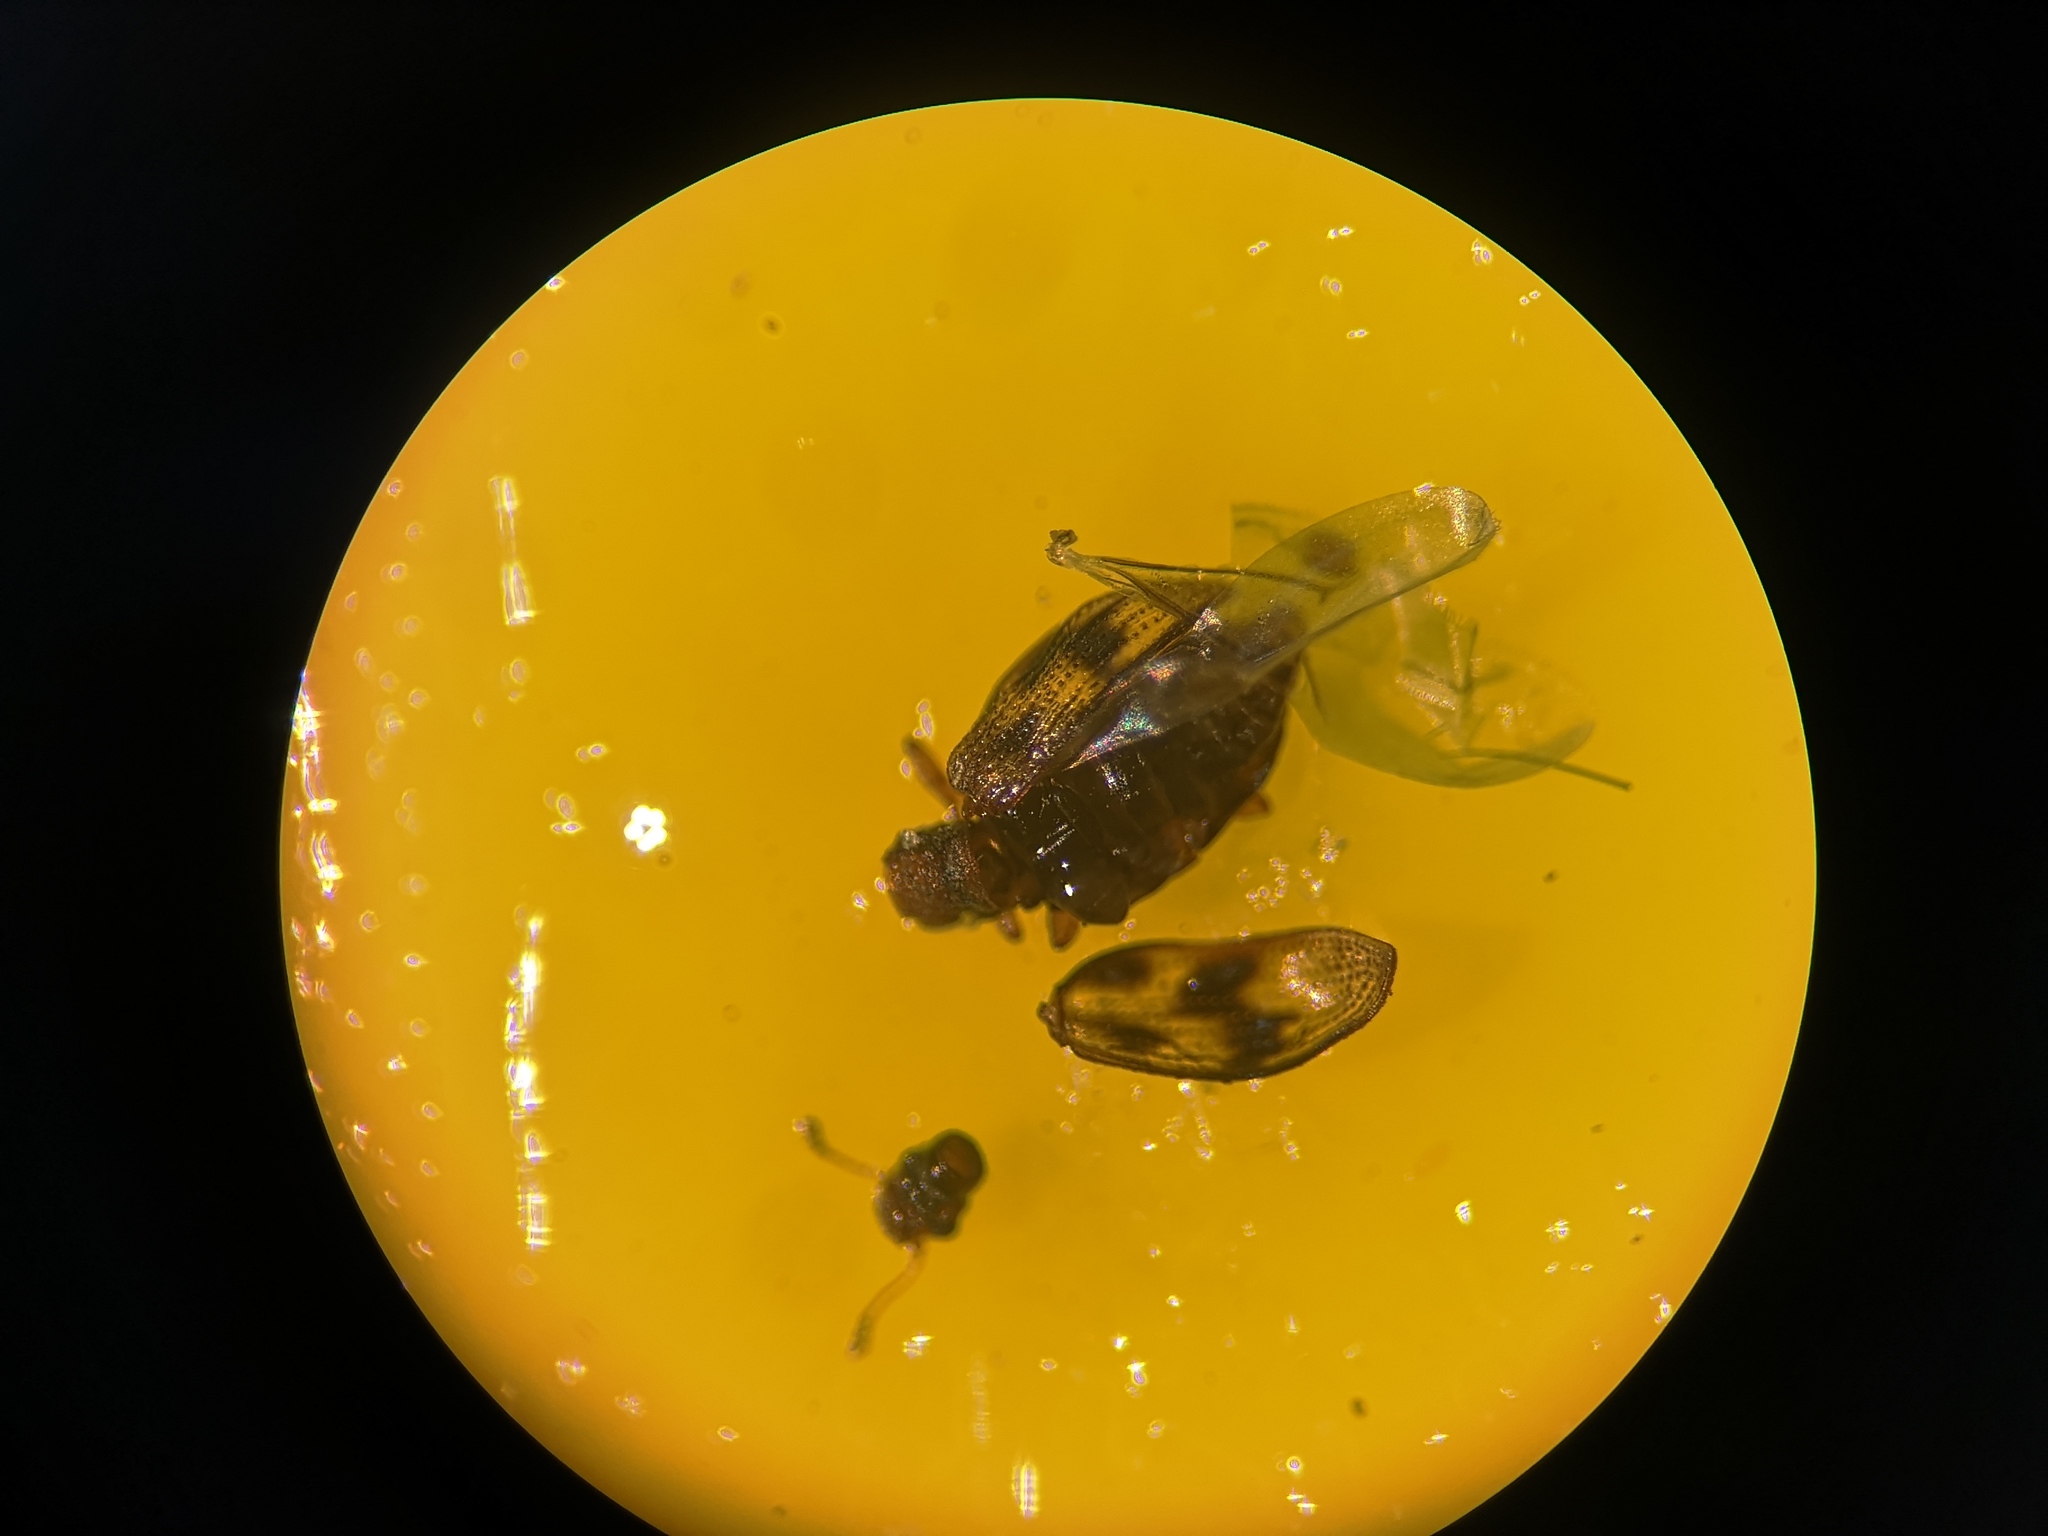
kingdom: Animalia
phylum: Arthropoda
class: Insecta
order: Coleoptera
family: Latridiidae
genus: Cartodere
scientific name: Cartodere bifasciata
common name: Plaster beetle
